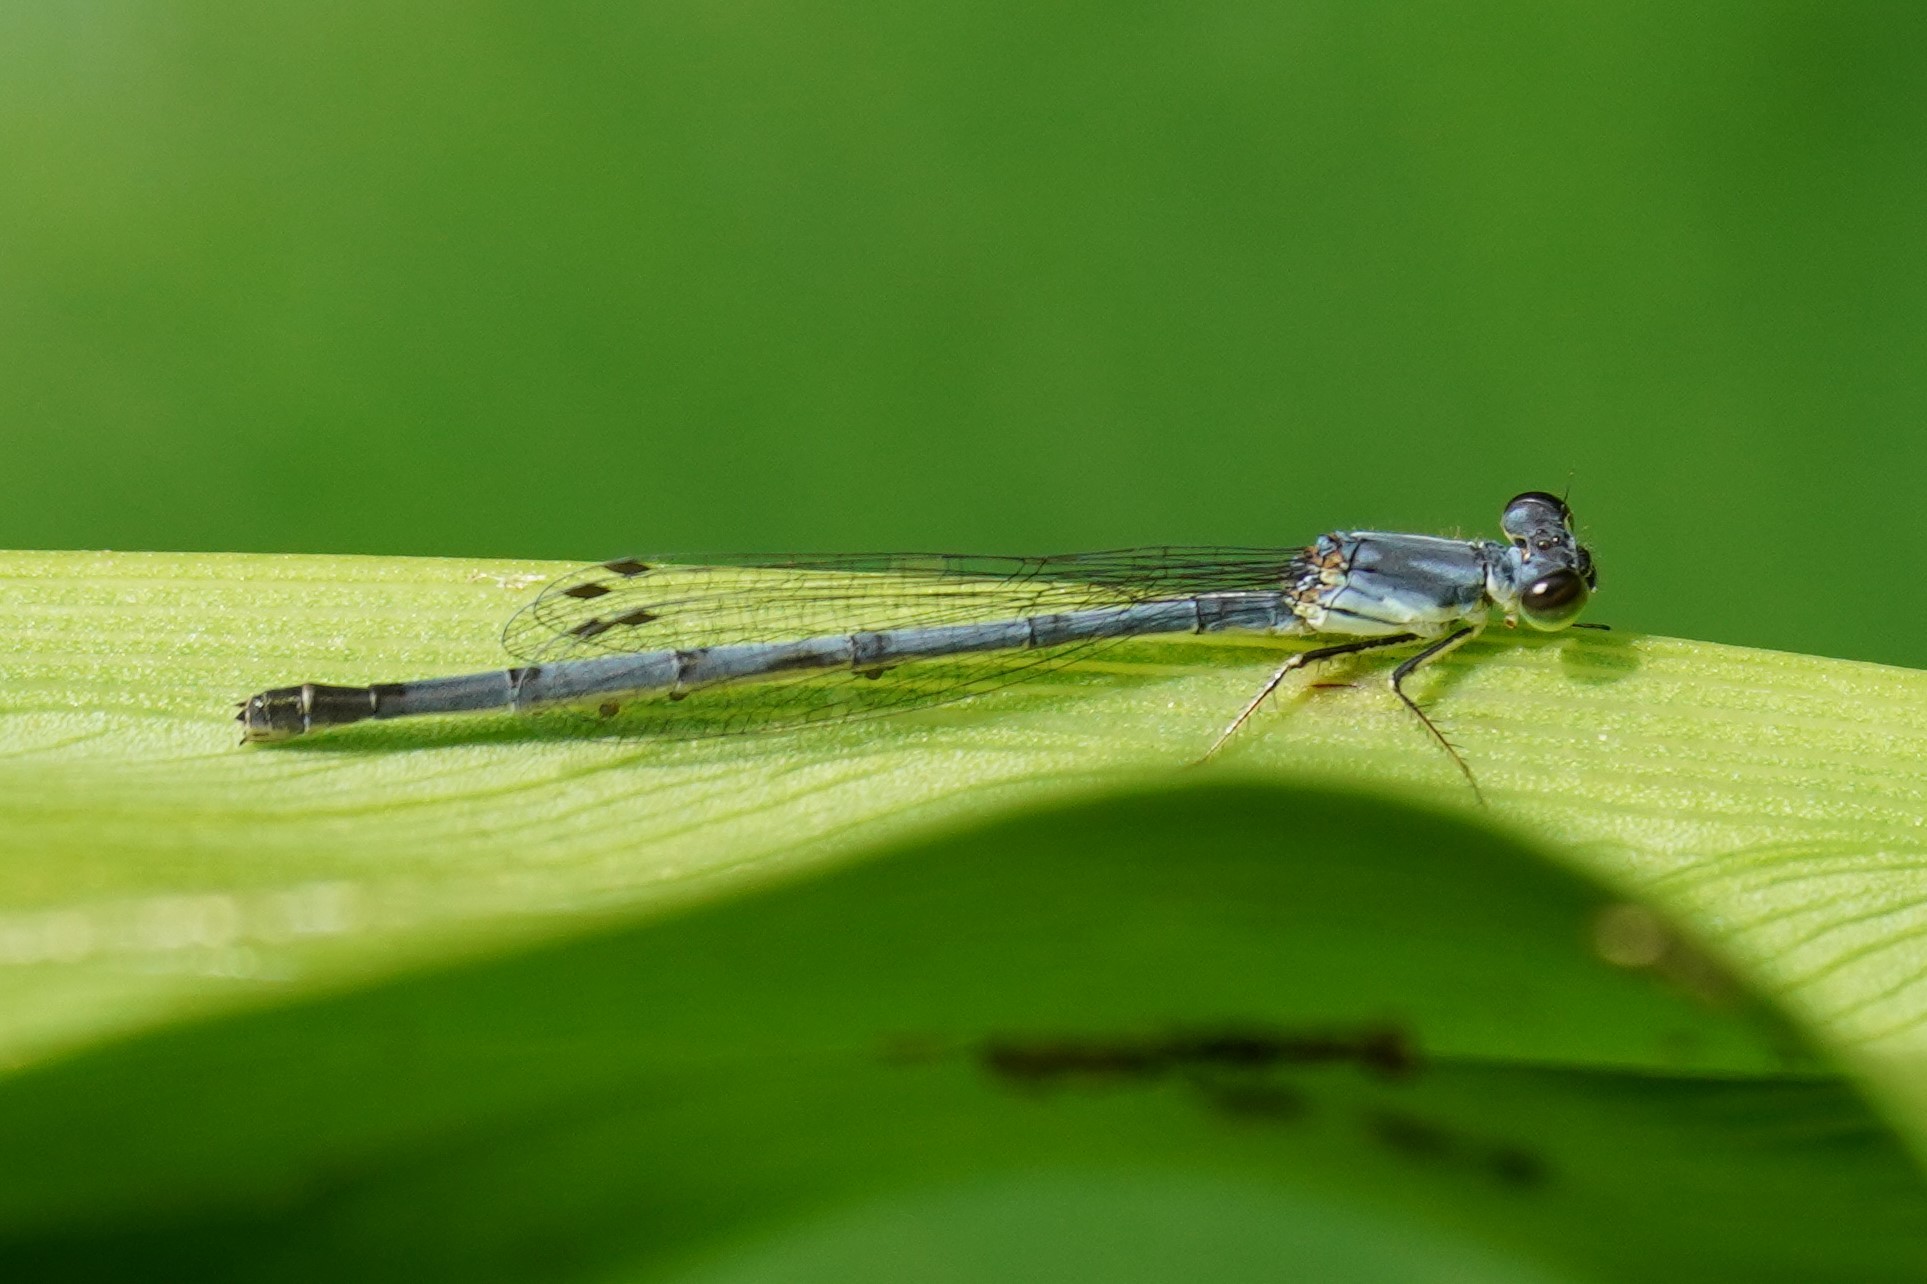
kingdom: Animalia
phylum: Arthropoda
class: Insecta
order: Odonata
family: Coenagrionidae
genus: Ischnura
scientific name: Ischnura posita
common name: Fragile forktail
